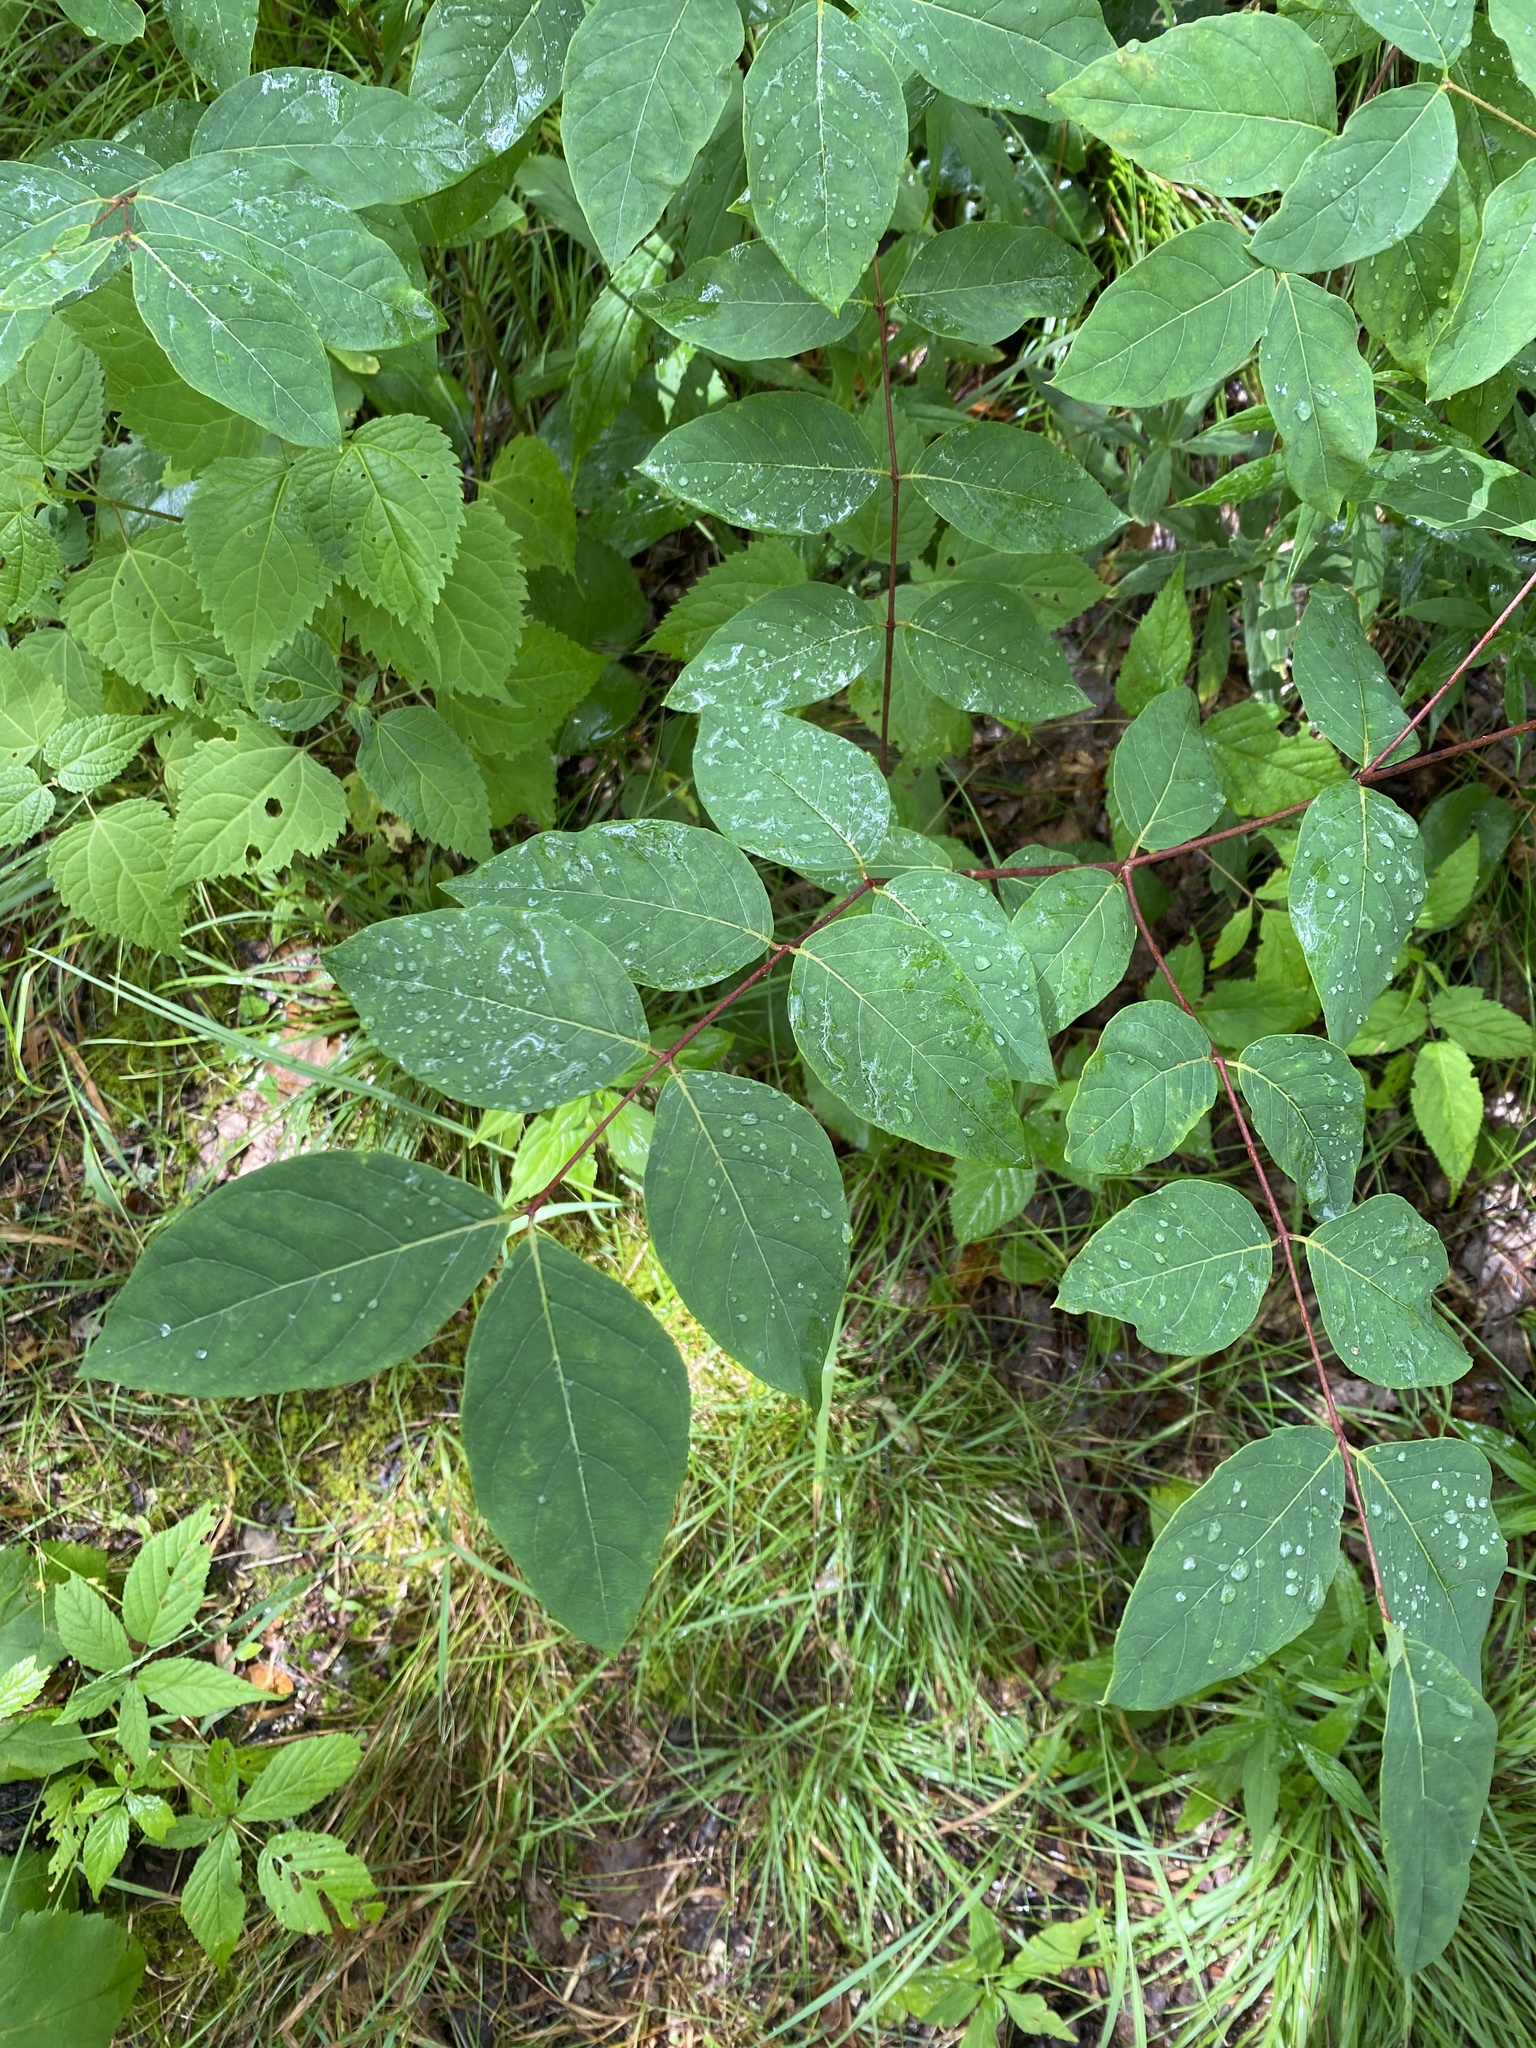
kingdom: Plantae
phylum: Tracheophyta
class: Magnoliopsida
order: Gentianales
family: Apocynaceae
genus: Apocynum
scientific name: Apocynum androsaemifolium
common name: Spreading dogbane
